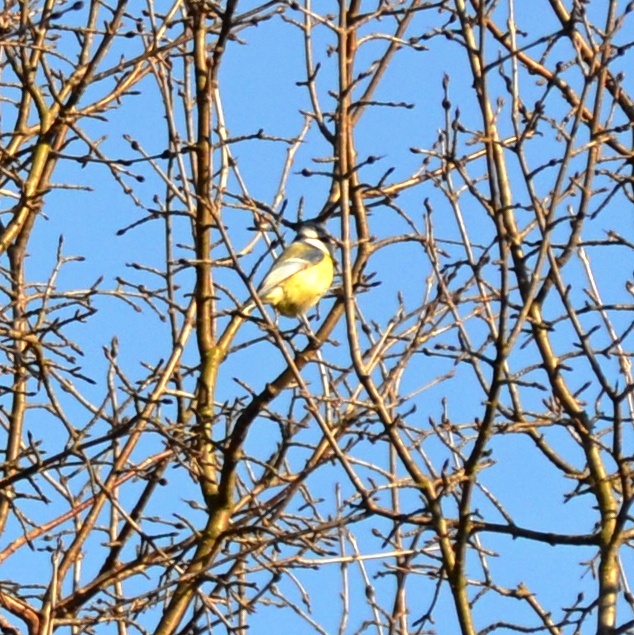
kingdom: Animalia
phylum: Chordata
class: Aves
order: Passeriformes
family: Paridae
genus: Cyanistes
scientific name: Cyanistes caeruleus
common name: Eurasian blue tit
